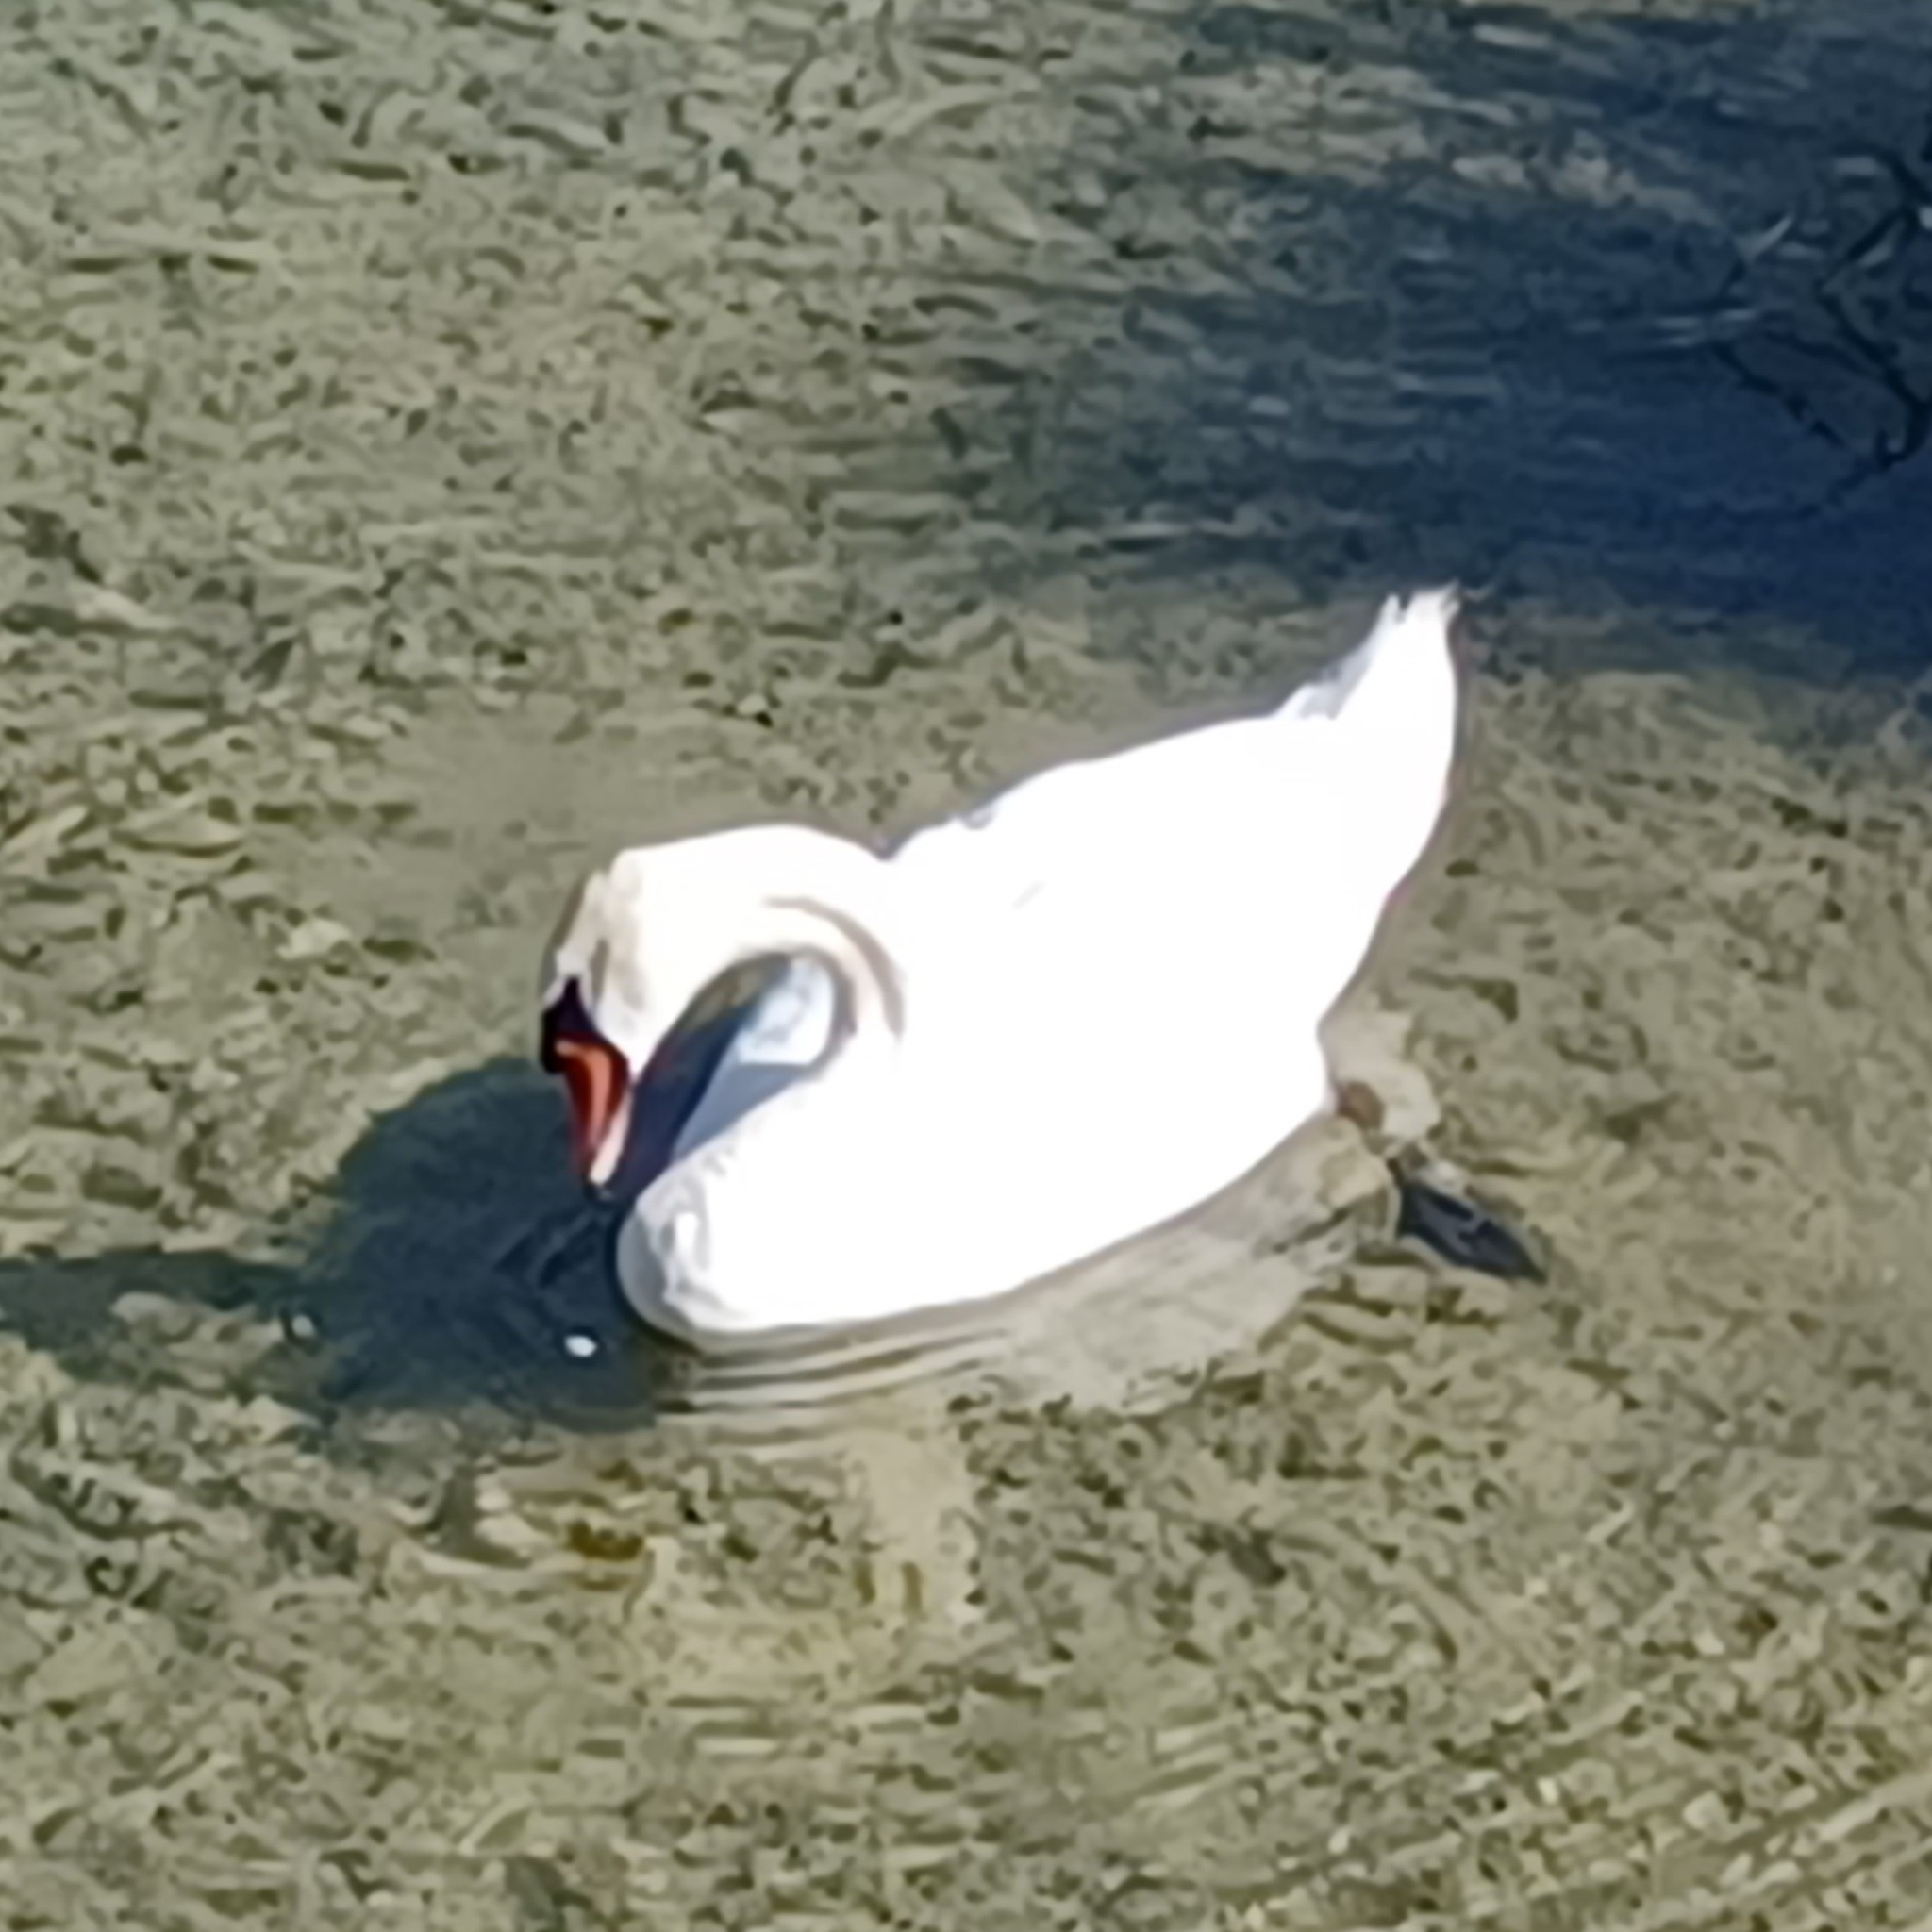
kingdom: Animalia
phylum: Chordata
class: Aves
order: Anseriformes
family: Anatidae
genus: Cygnus
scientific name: Cygnus olor
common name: Mute swan
